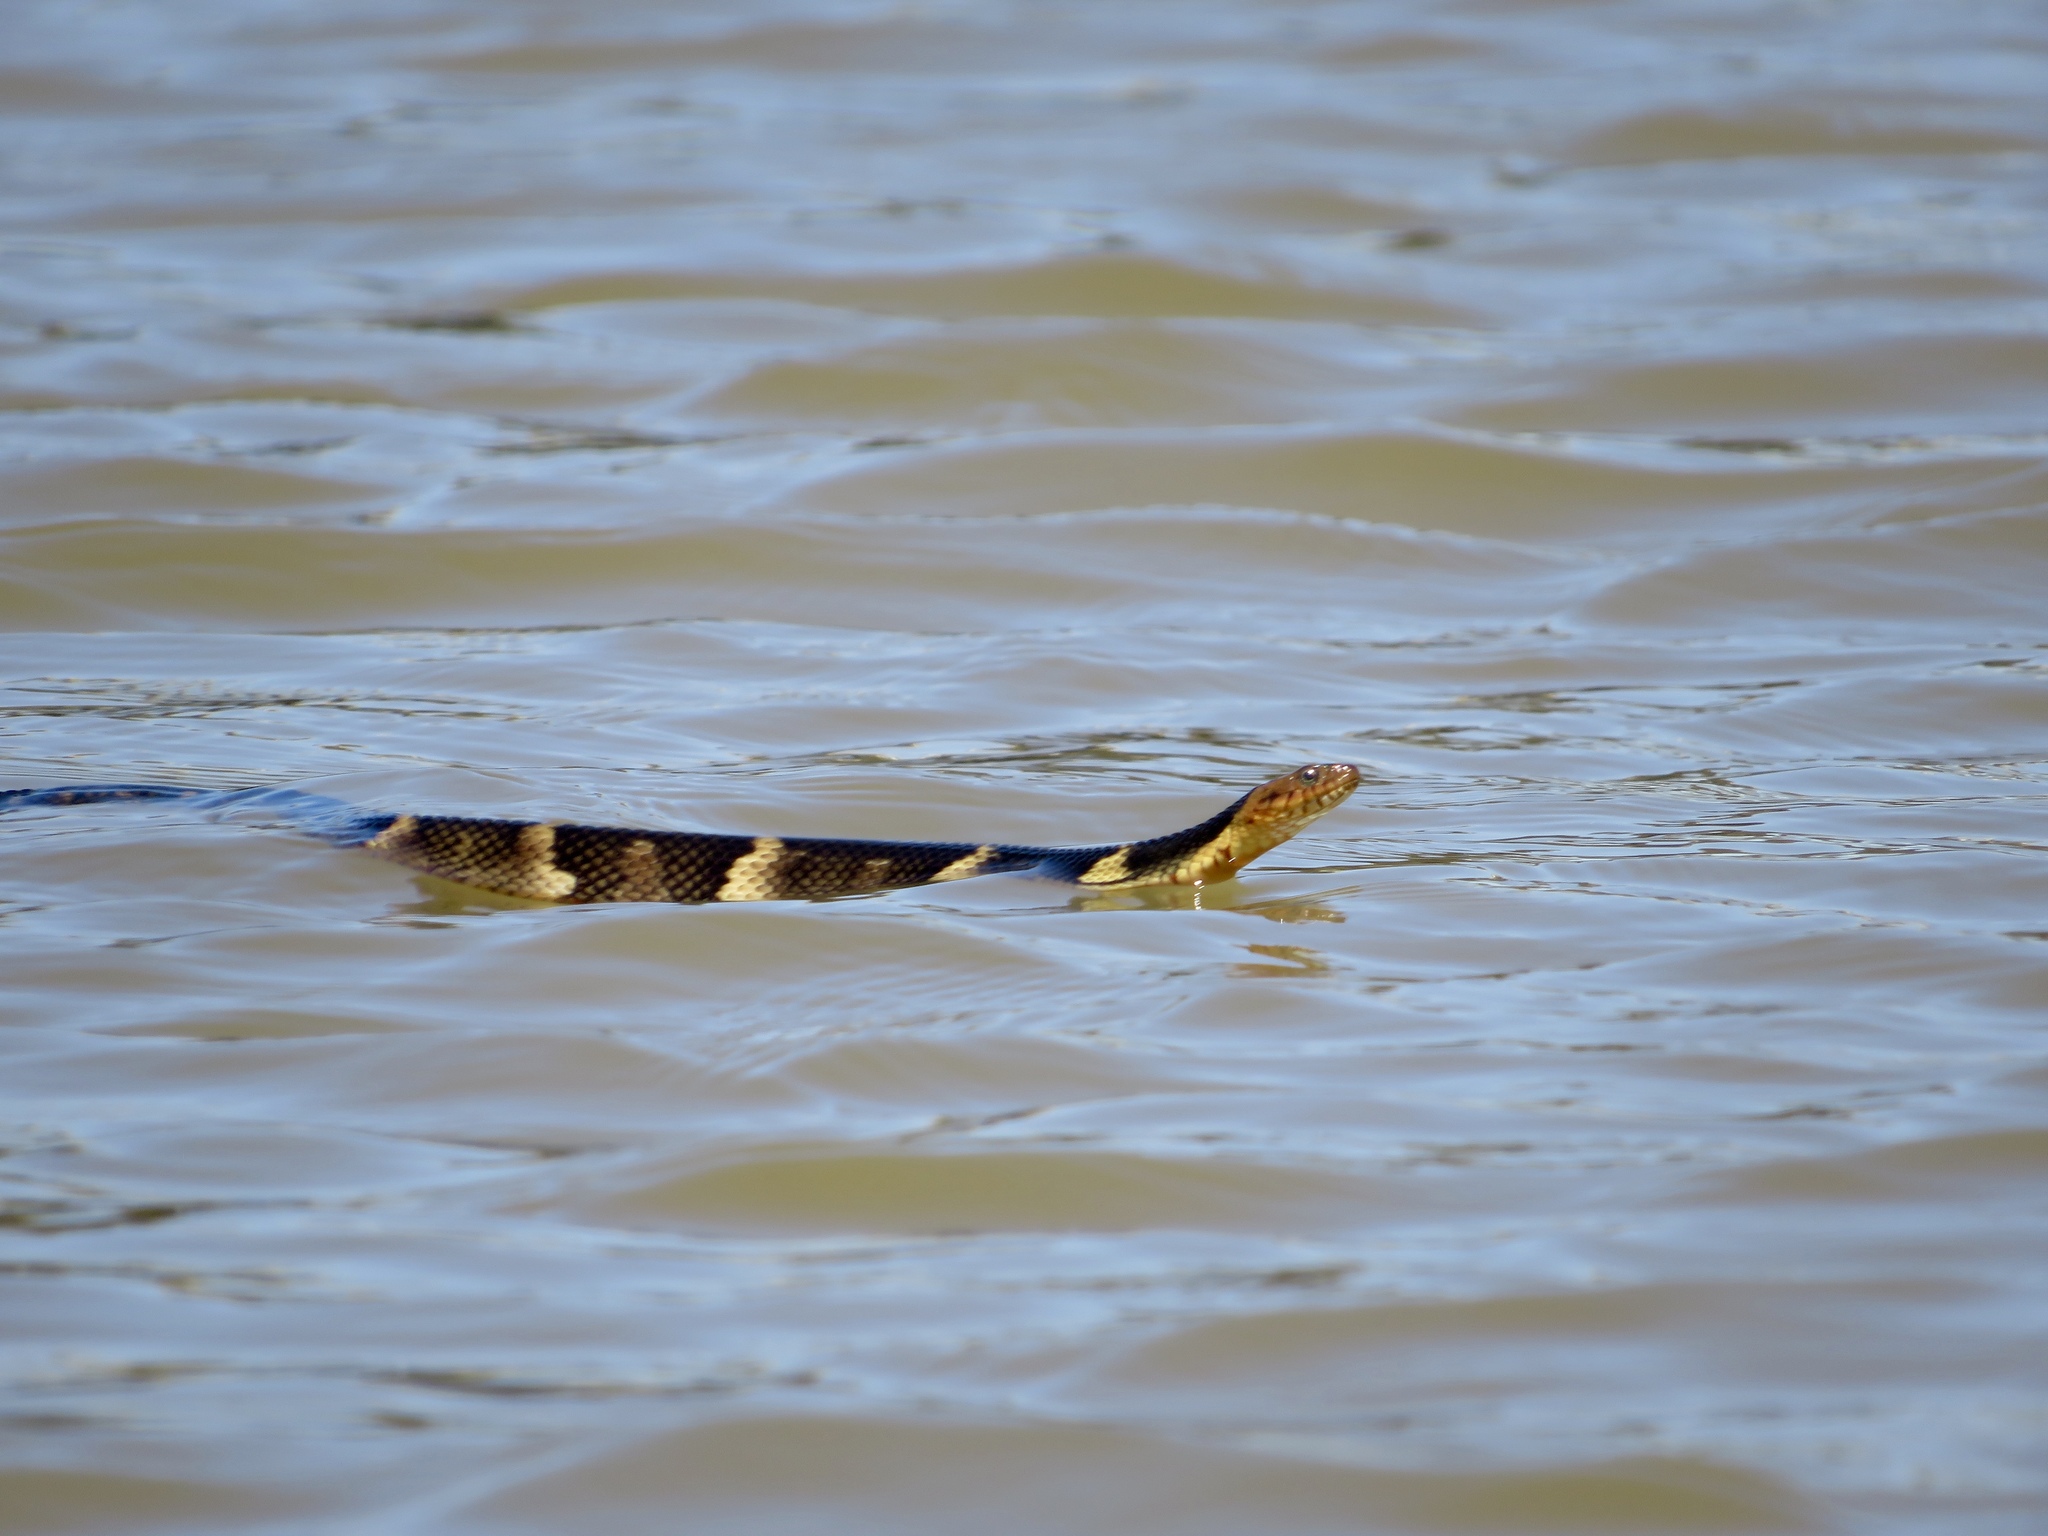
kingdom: Animalia
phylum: Chordata
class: Squamata
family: Colubridae
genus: Nerodia
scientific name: Nerodia fasciata
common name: Southern water snake
